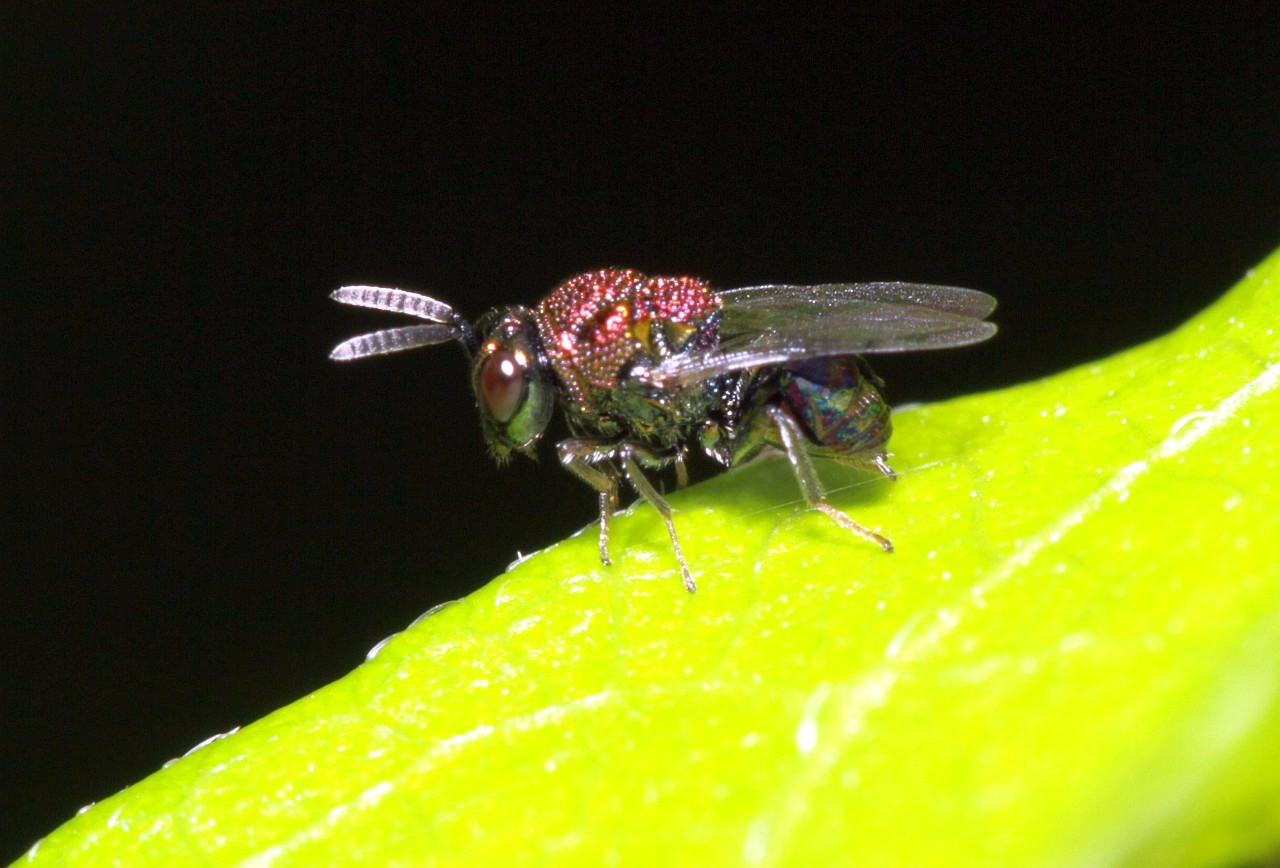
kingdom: Animalia
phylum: Arthropoda
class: Insecta
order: Hymenoptera
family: Perilampidae
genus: Perilampus
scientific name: Perilampus aeneus
